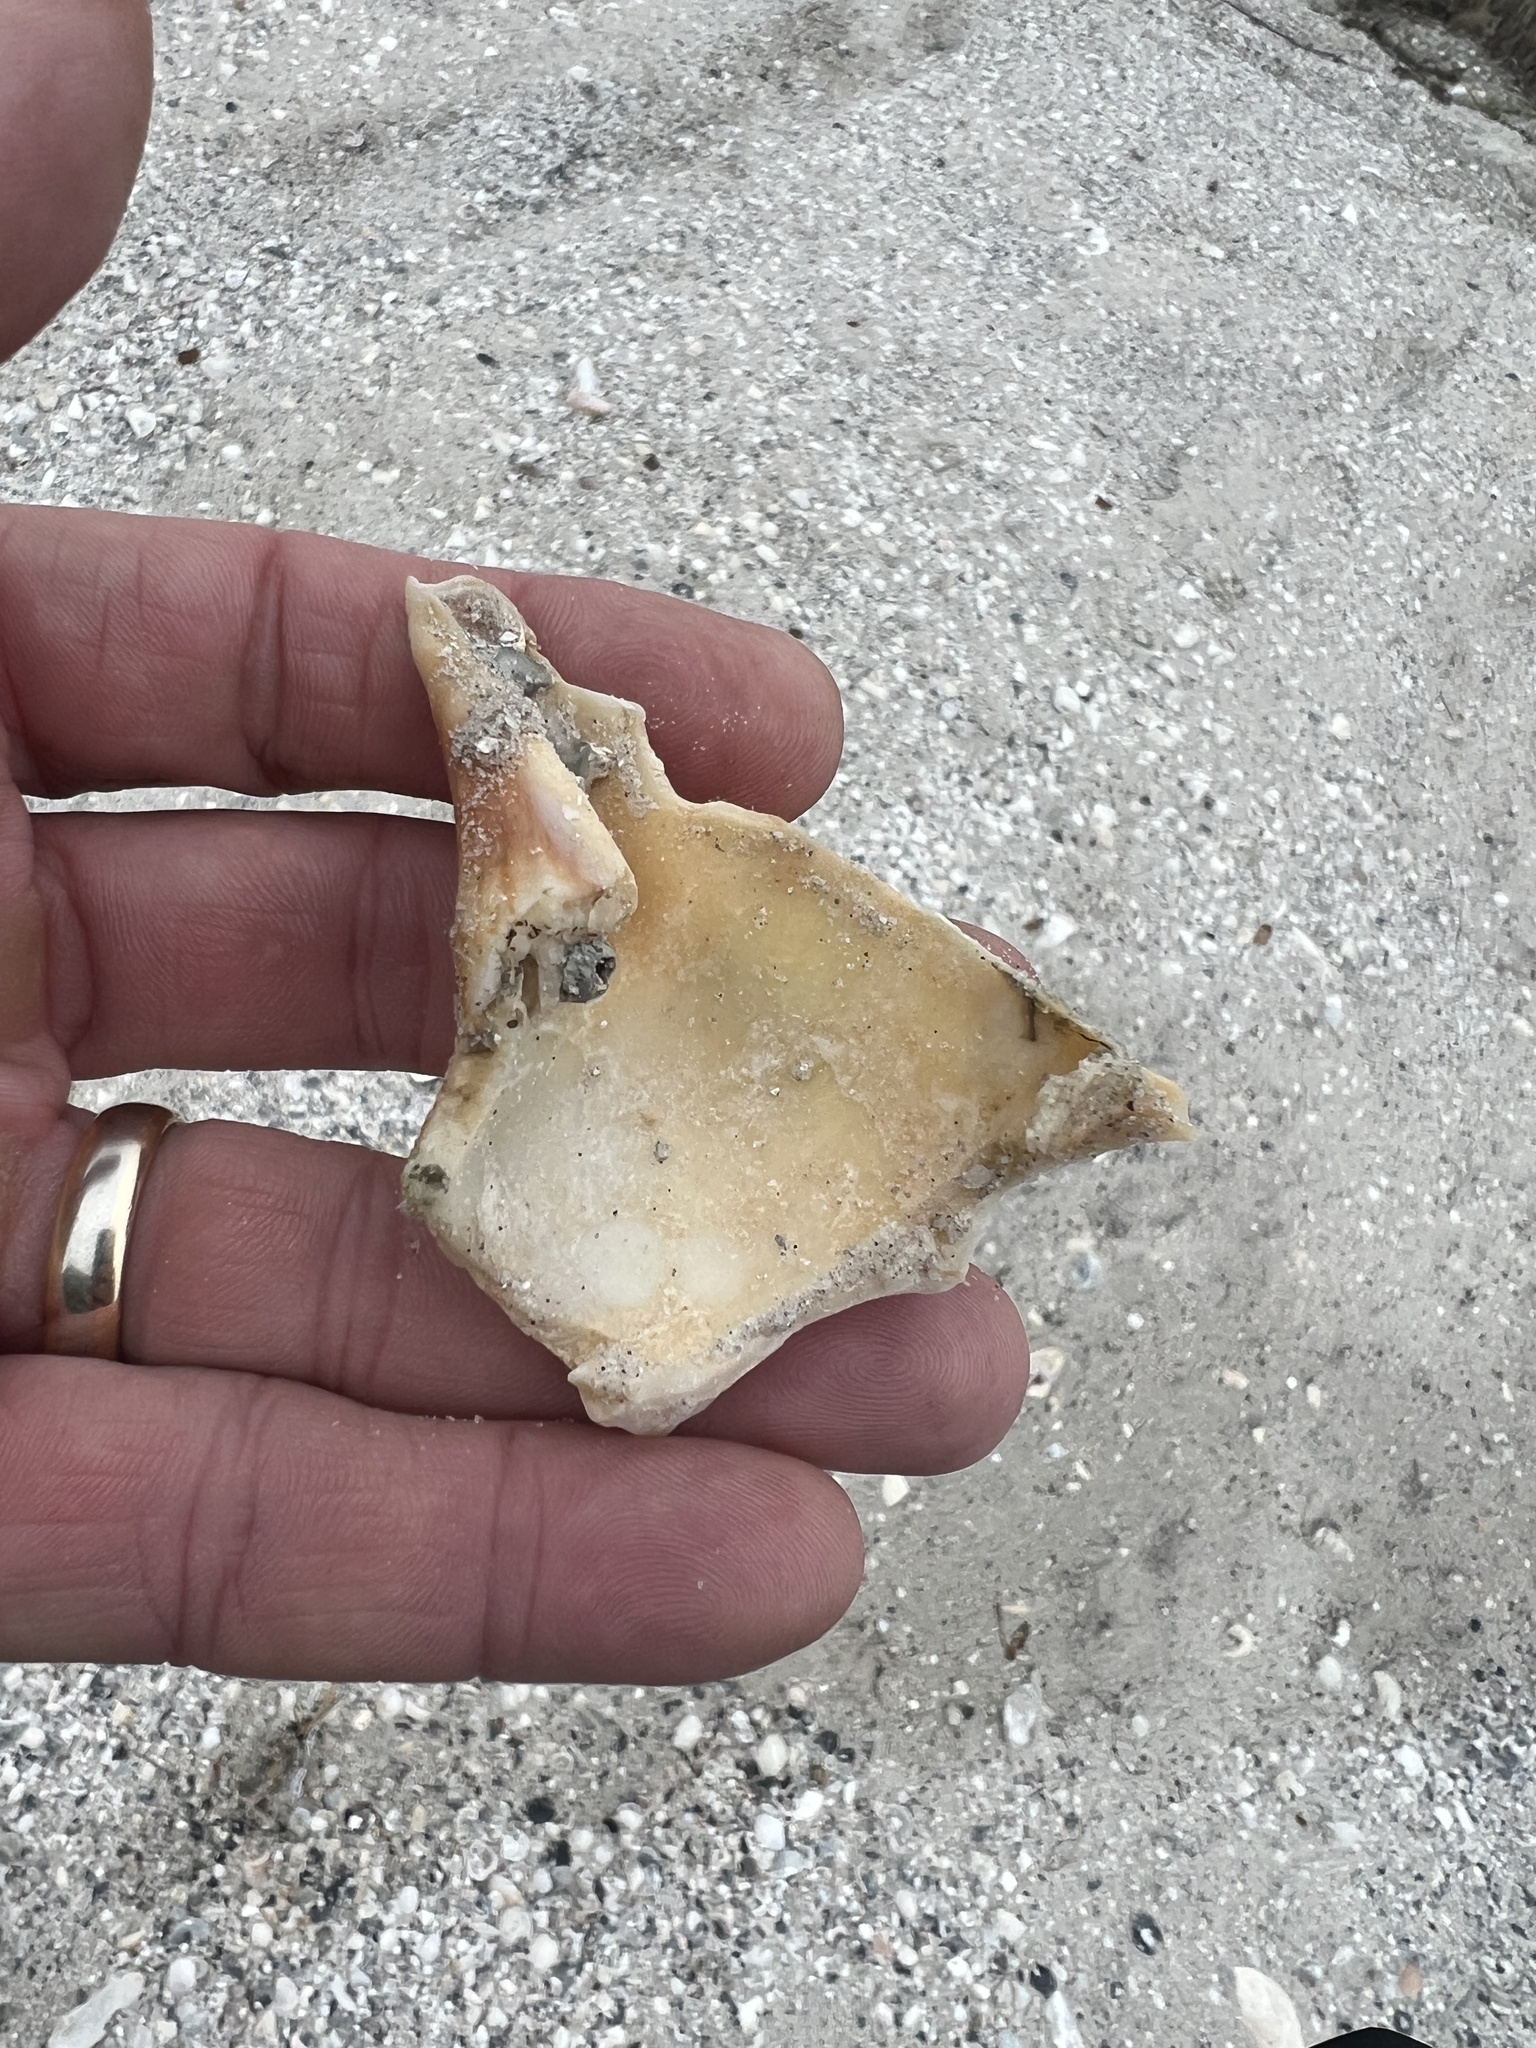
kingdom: Animalia
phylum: Mollusca
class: Gastropoda
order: Neogastropoda
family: Busyconidae
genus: Sinistrofulgur
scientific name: Sinistrofulgur pulleyi
